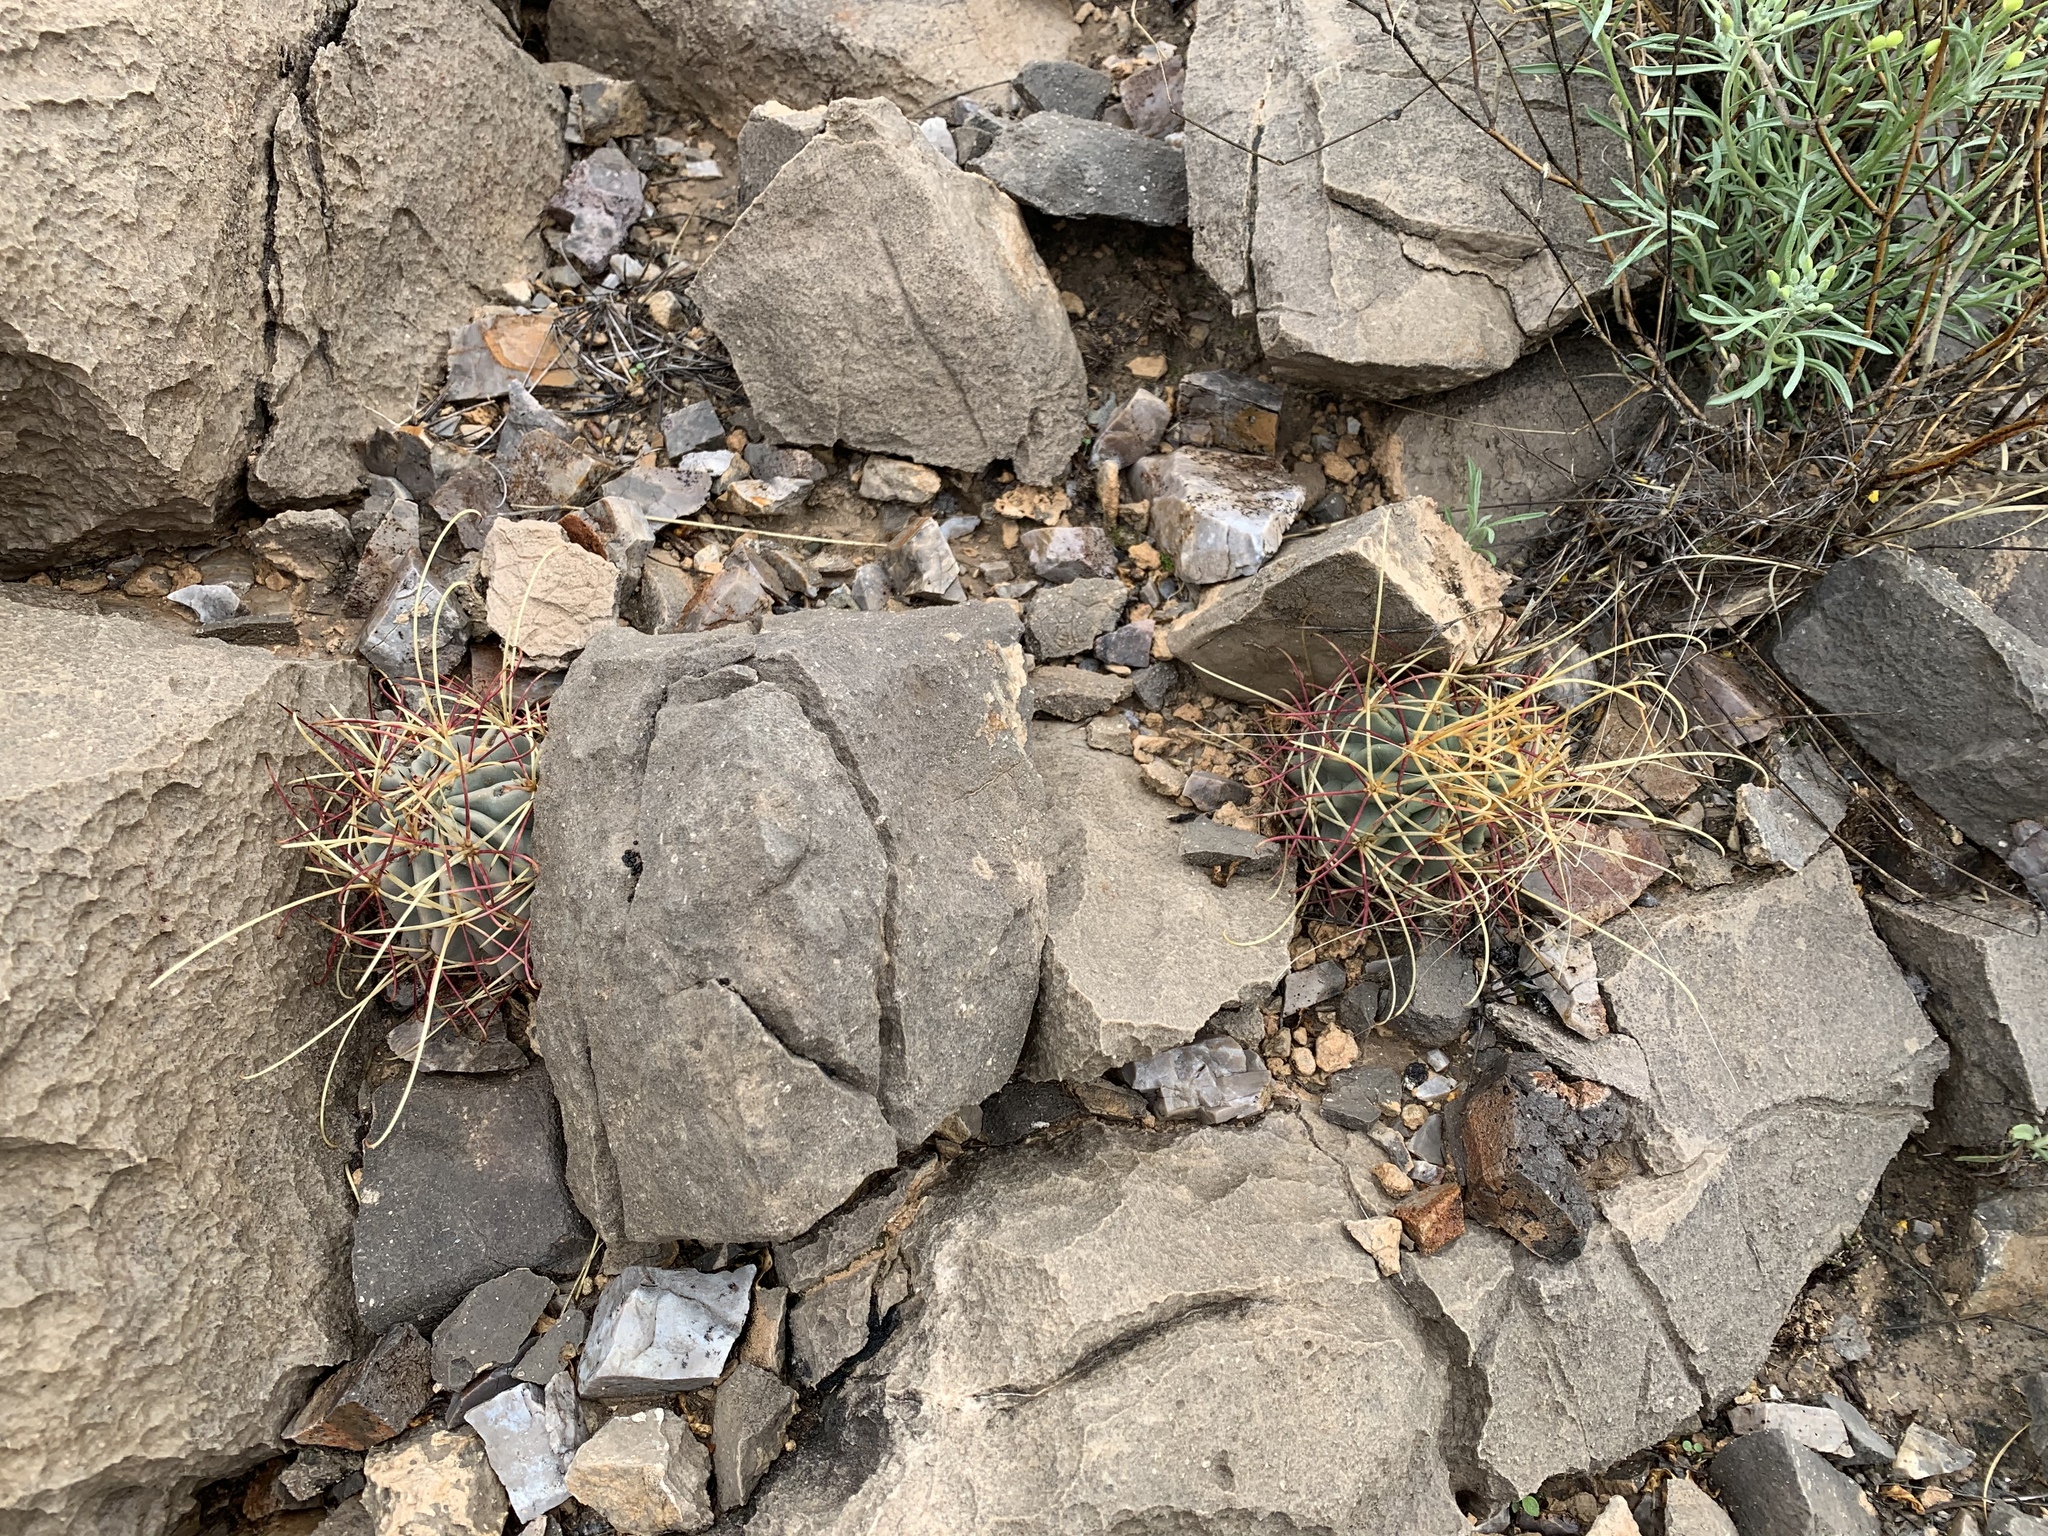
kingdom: Plantae
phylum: Tracheophyta
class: Magnoliopsida
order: Caryophyllales
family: Cactaceae
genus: Ferocactus
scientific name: Ferocactus uncinatus
